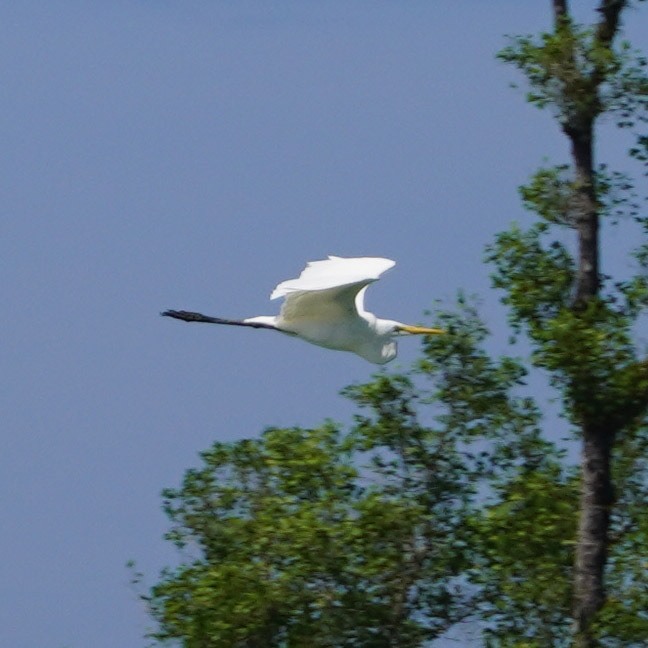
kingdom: Animalia
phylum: Chordata
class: Aves
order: Pelecaniformes
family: Ardeidae
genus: Ardea
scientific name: Ardea alba
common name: Great egret
